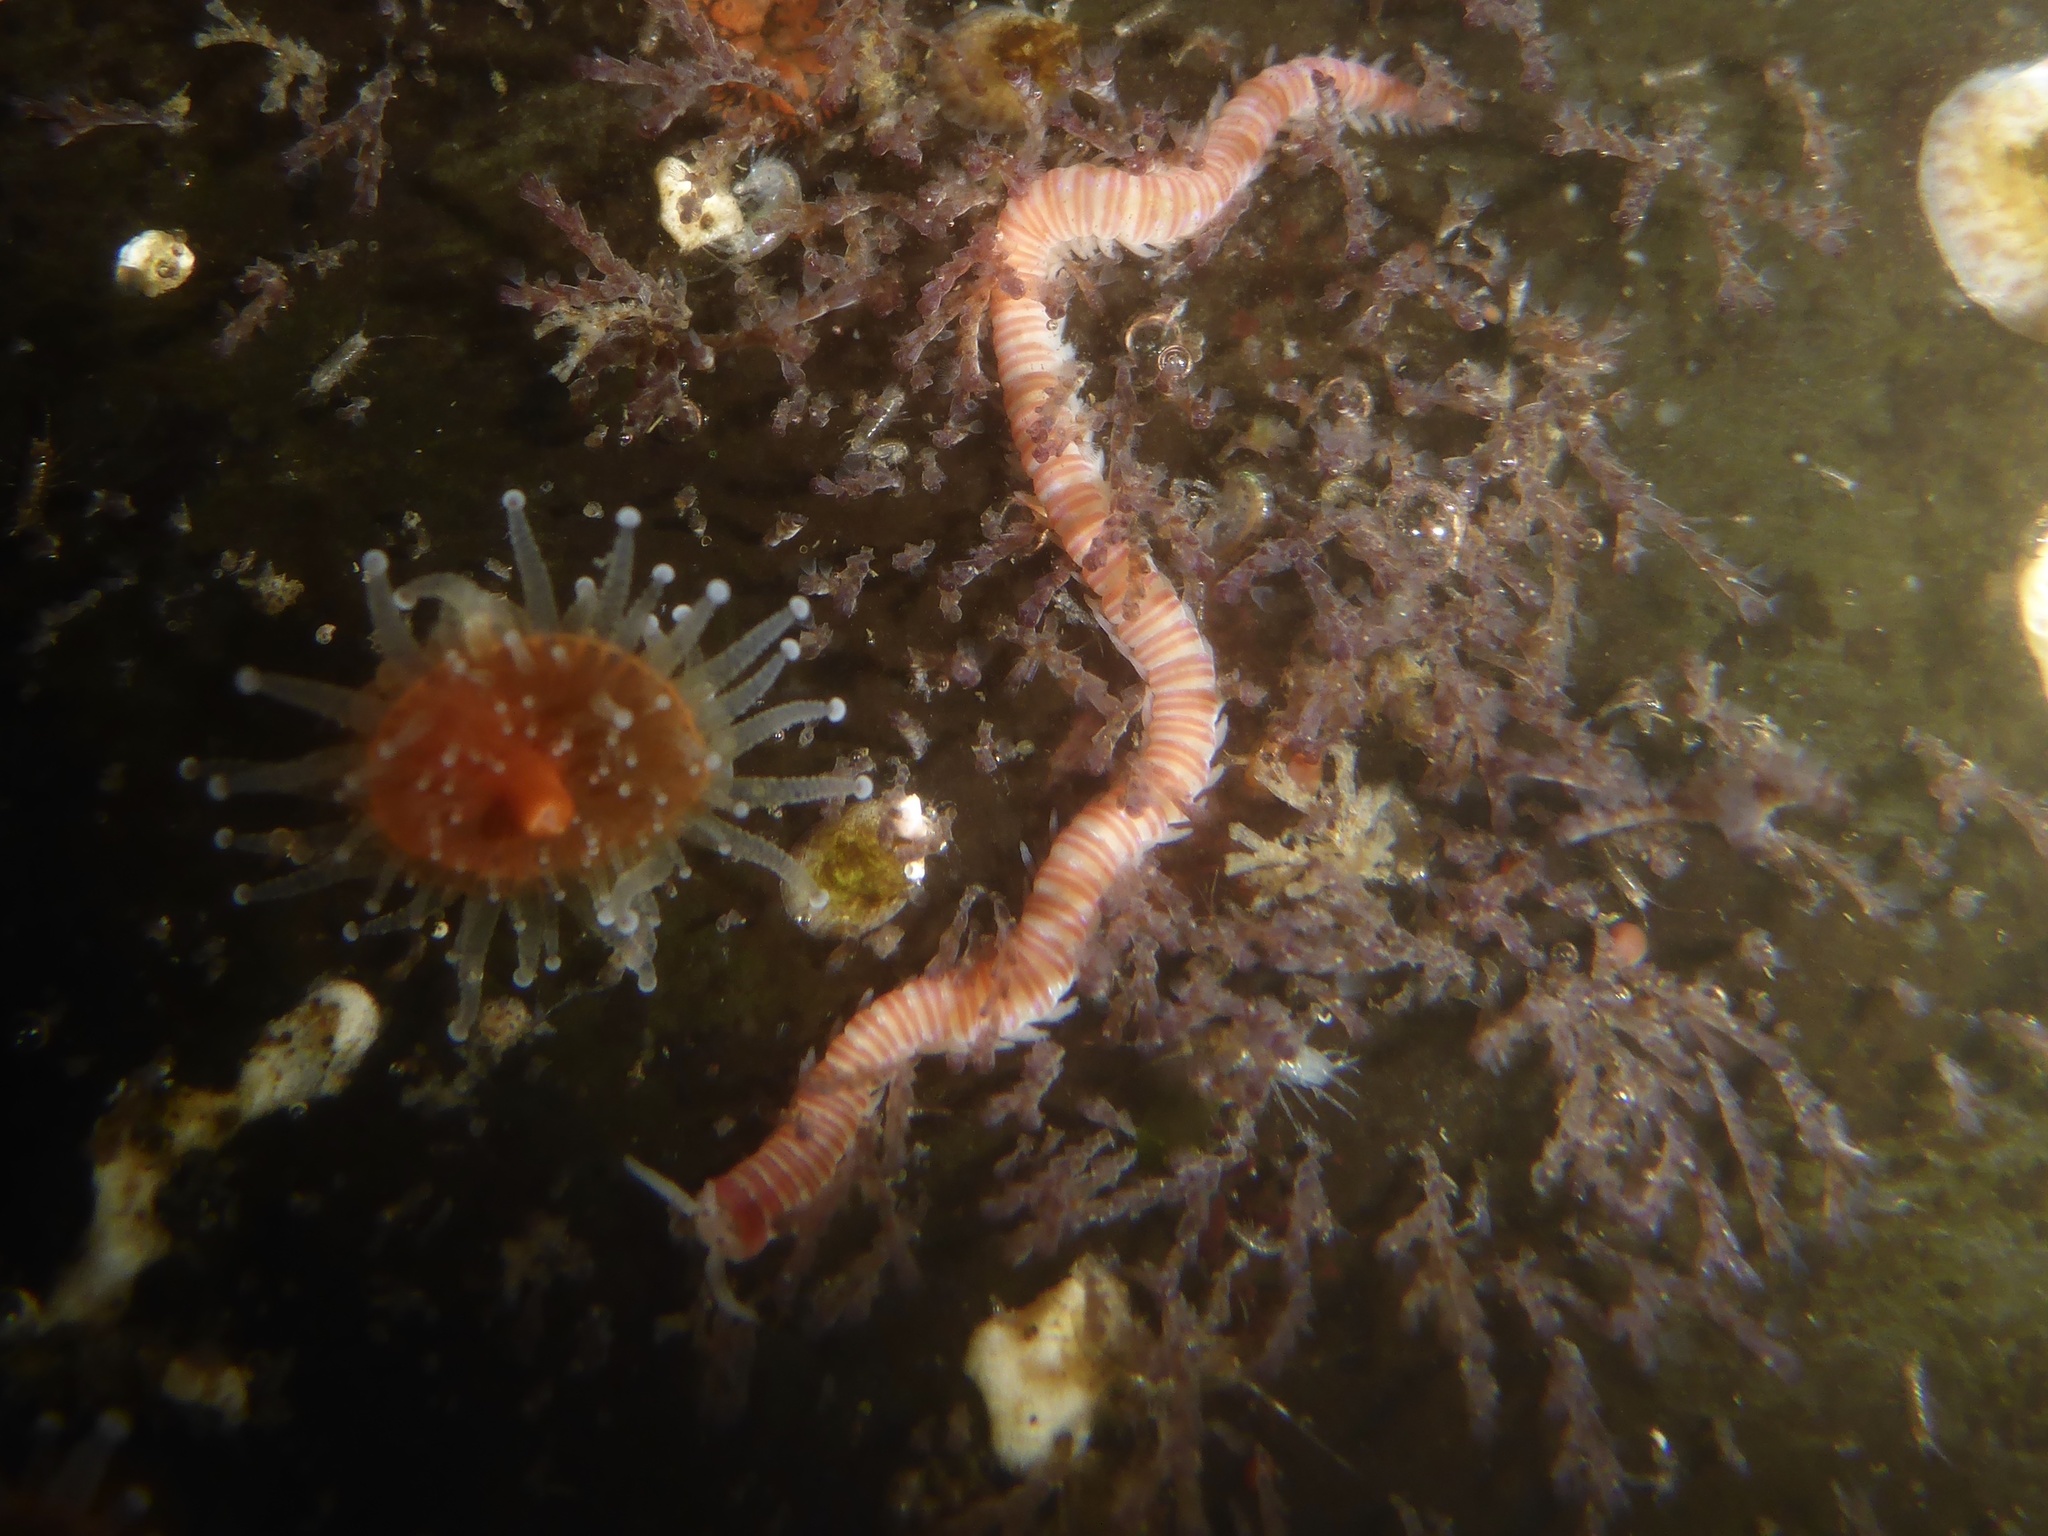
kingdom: Animalia
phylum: Annelida
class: Polychaeta
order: Eunicida
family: Dorvilleidae
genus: Dorvillea
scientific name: Dorvillea moniloceras
